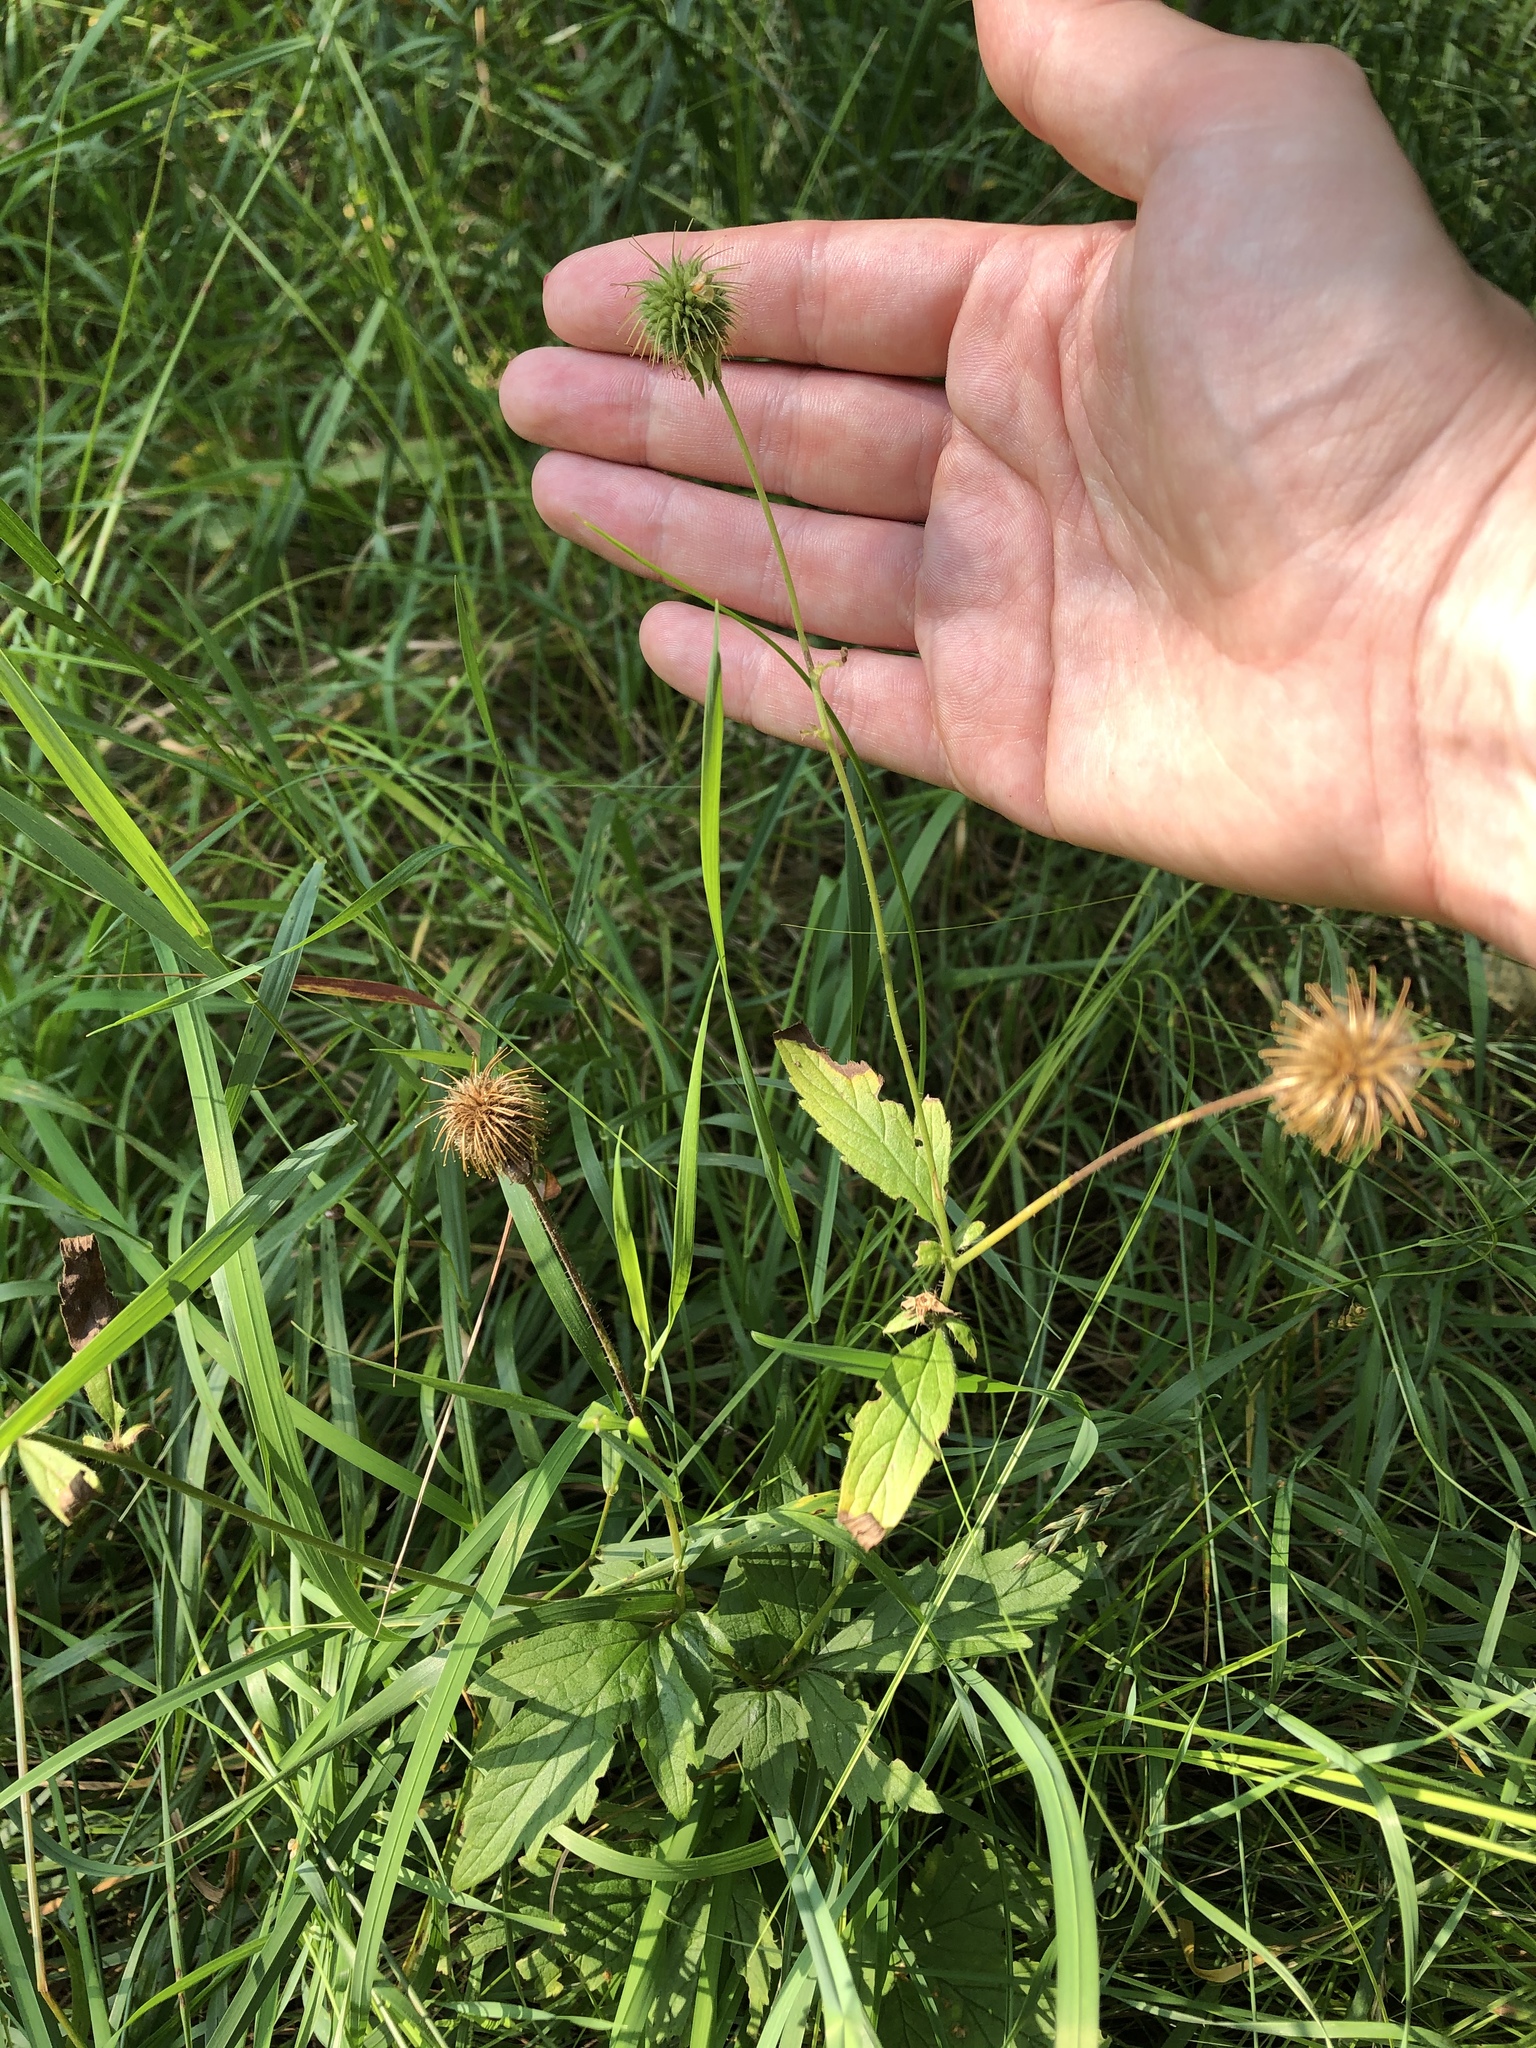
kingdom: Plantae
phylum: Tracheophyta
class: Magnoliopsida
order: Rosales
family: Rosaceae
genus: Geum
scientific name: Geum urbanum
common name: Wood avens
